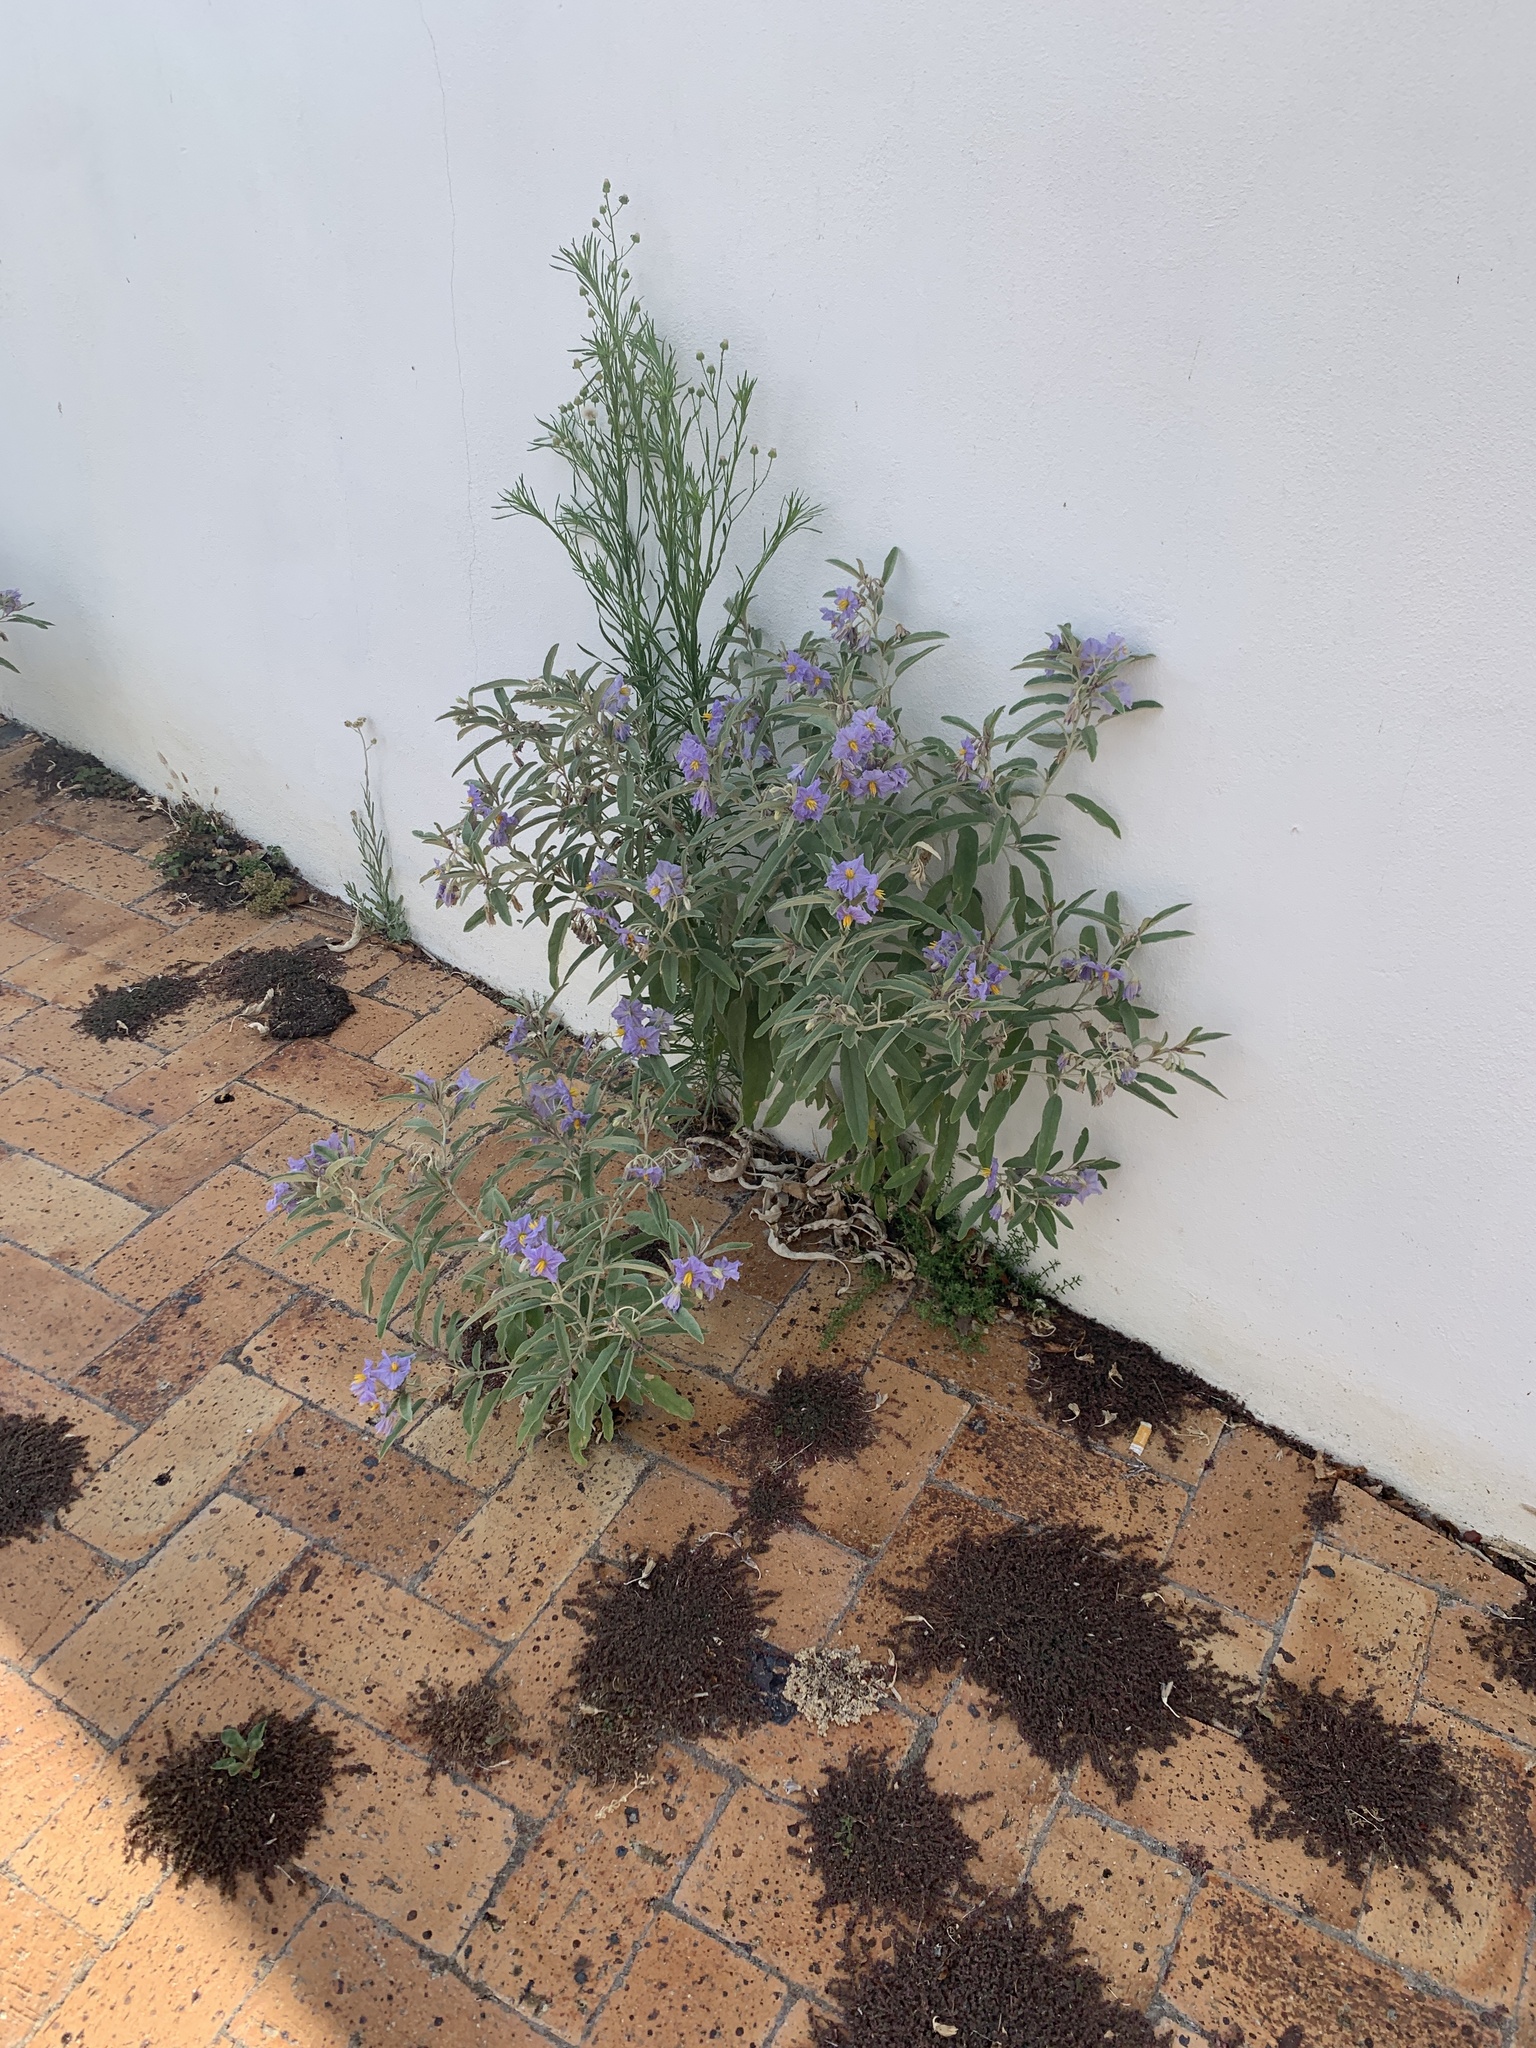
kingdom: Plantae
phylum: Tracheophyta
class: Magnoliopsida
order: Solanales
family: Solanaceae
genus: Solanum
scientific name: Solanum elaeagnifolium
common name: Silverleaf nightshade
